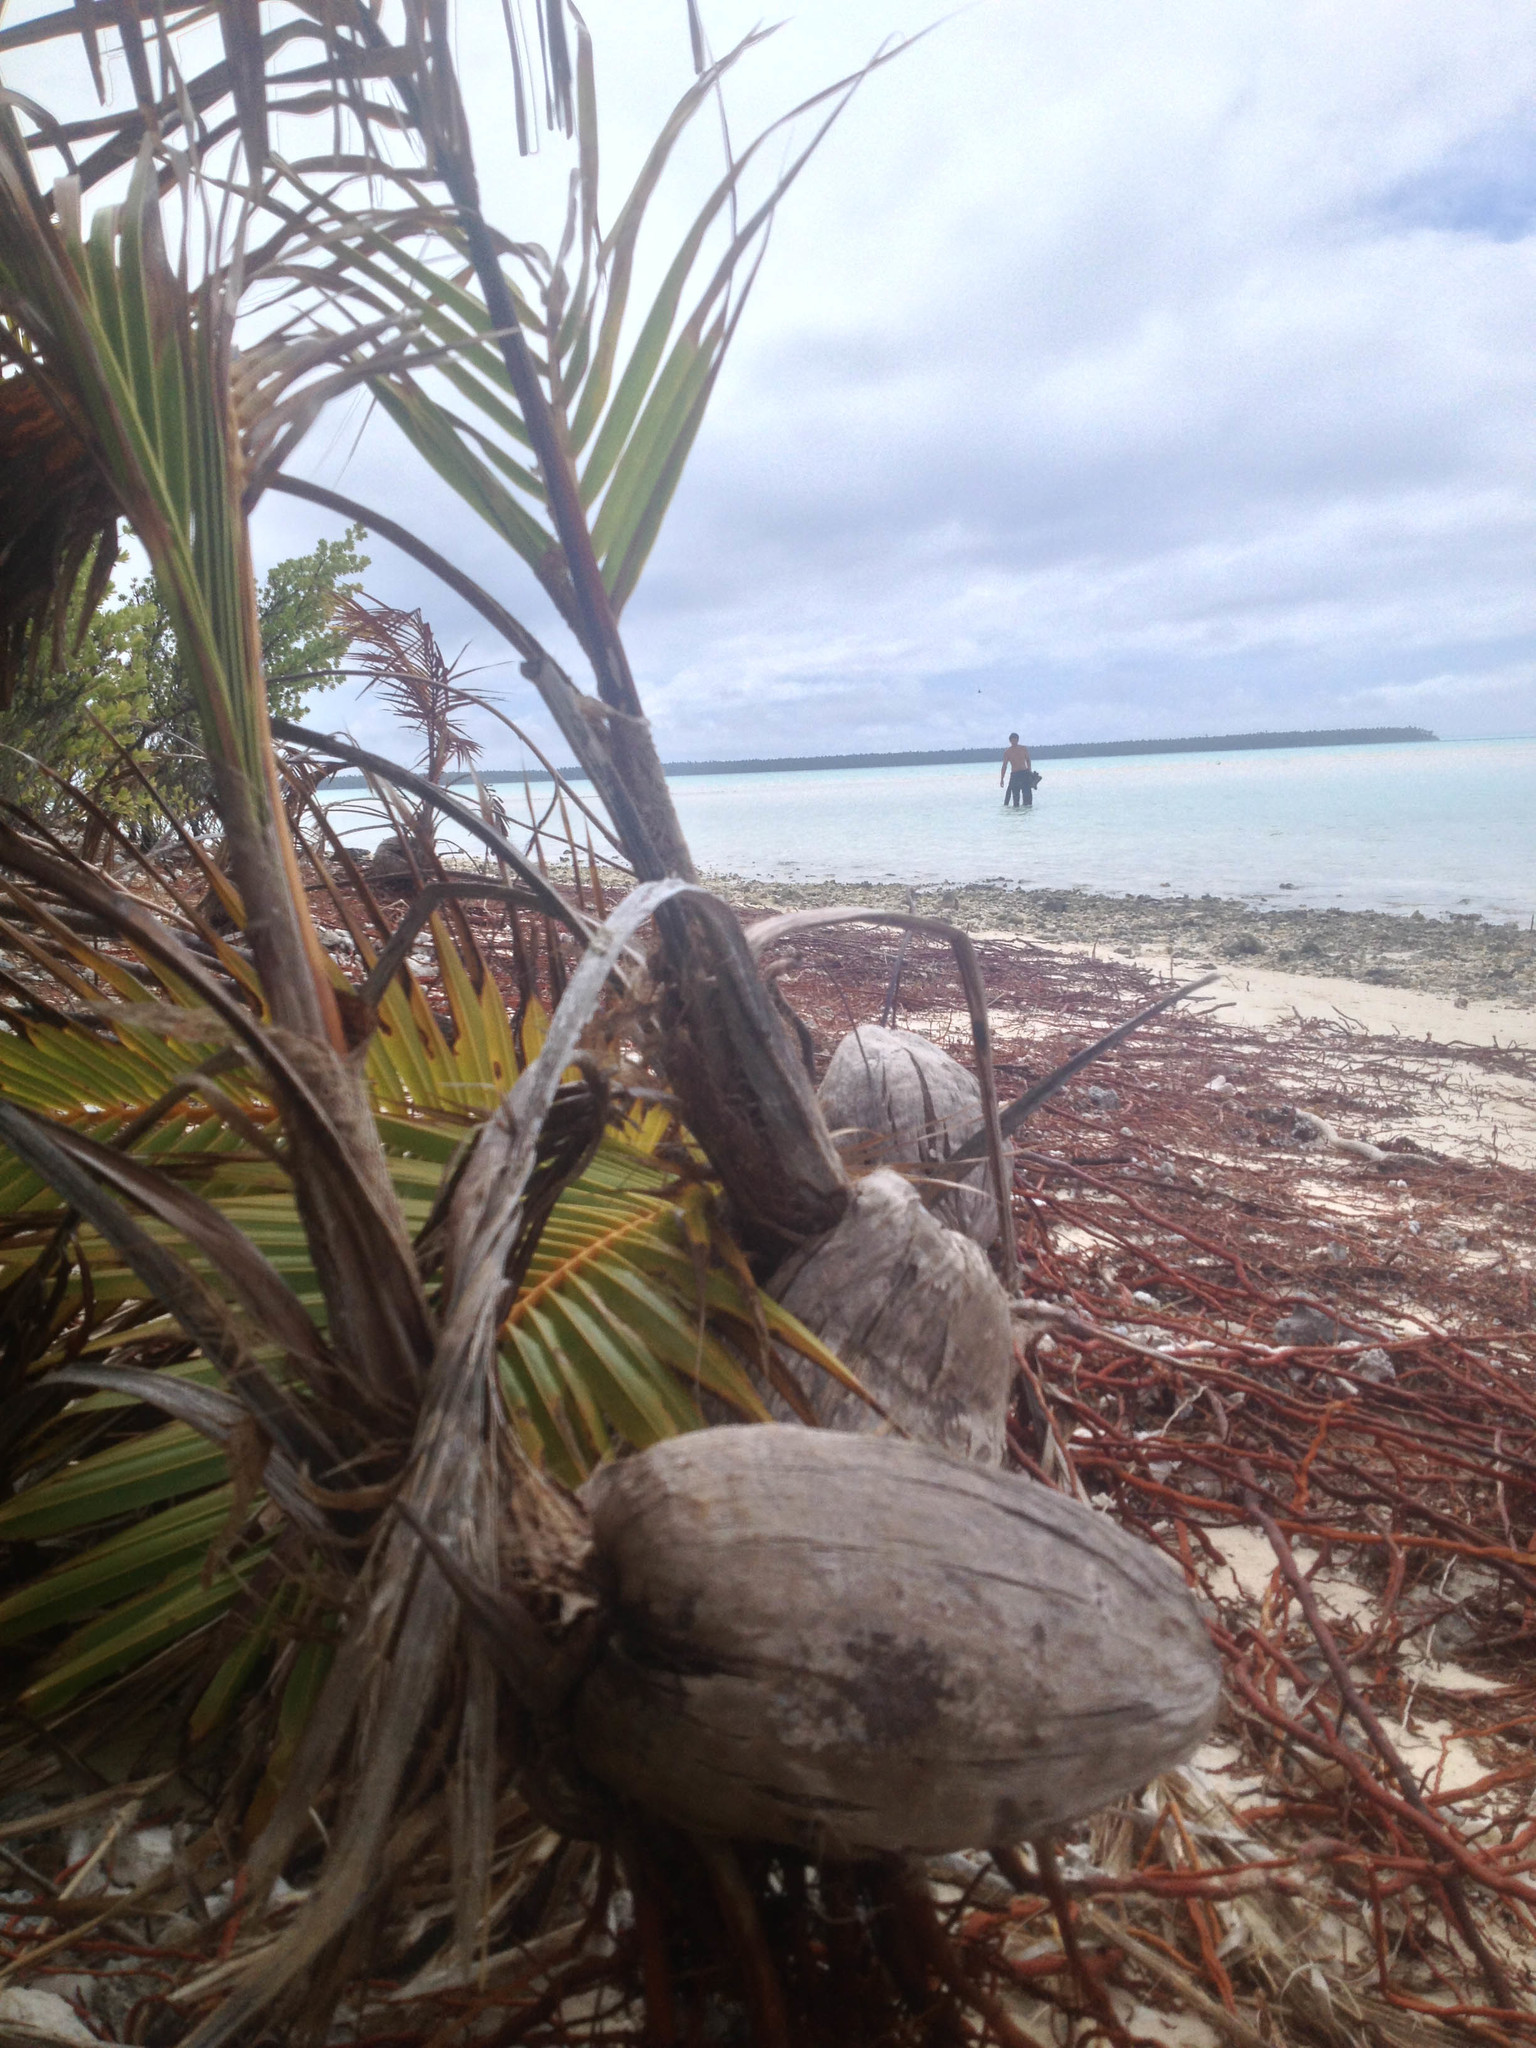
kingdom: Plantae
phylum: Tracheophyta
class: Liliopsida
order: Arecales
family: Arecaceae
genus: Cocos
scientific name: Cocos nucifera
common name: Coconut palm
